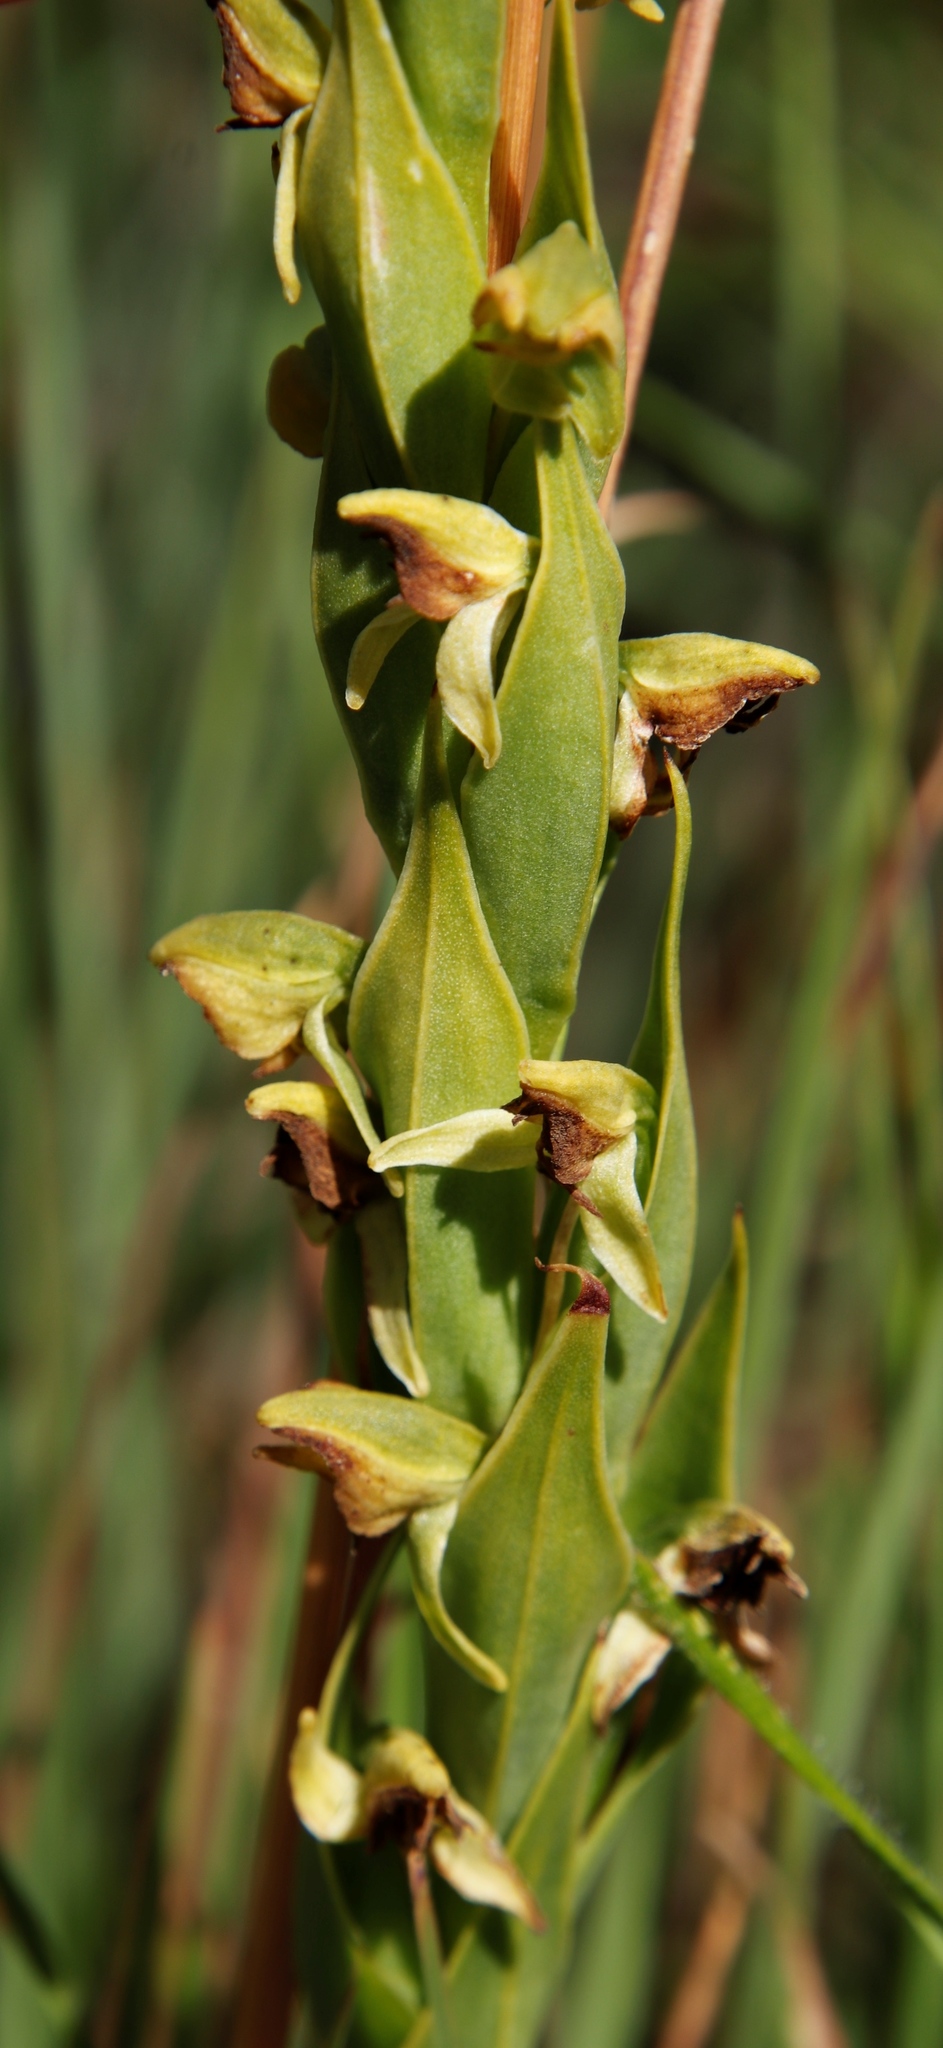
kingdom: Plantae
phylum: Tracheophyta
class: Liliopsida
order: Asparagales
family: Orchidaceae
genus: Habenaria
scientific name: Habenaria laevigata
